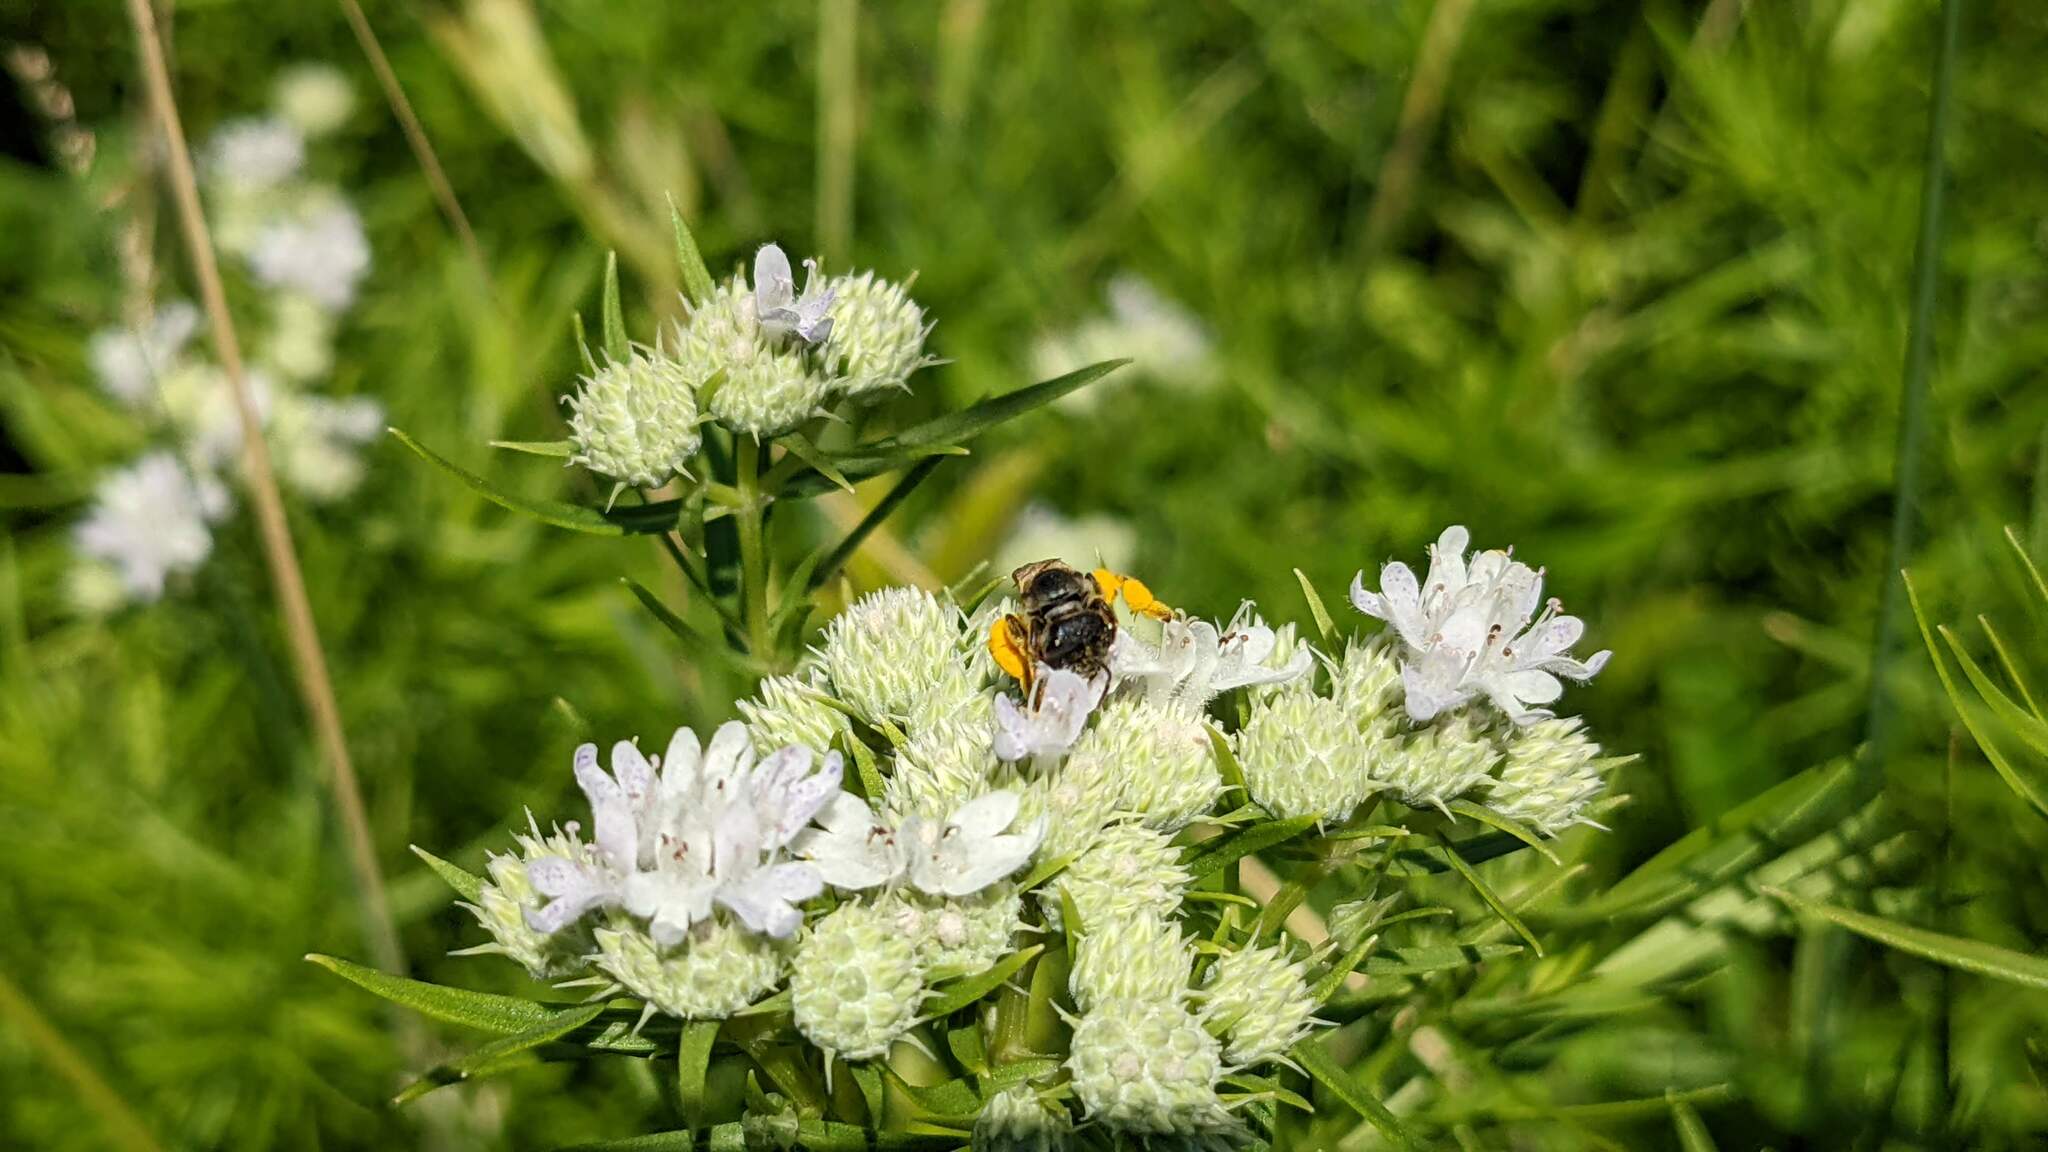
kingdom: Animalia
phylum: Arthropoda
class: Insecta
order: Hymenoptera
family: Halictidae
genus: Halictus
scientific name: Halictus ligatus
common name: Ligated furrow bee
